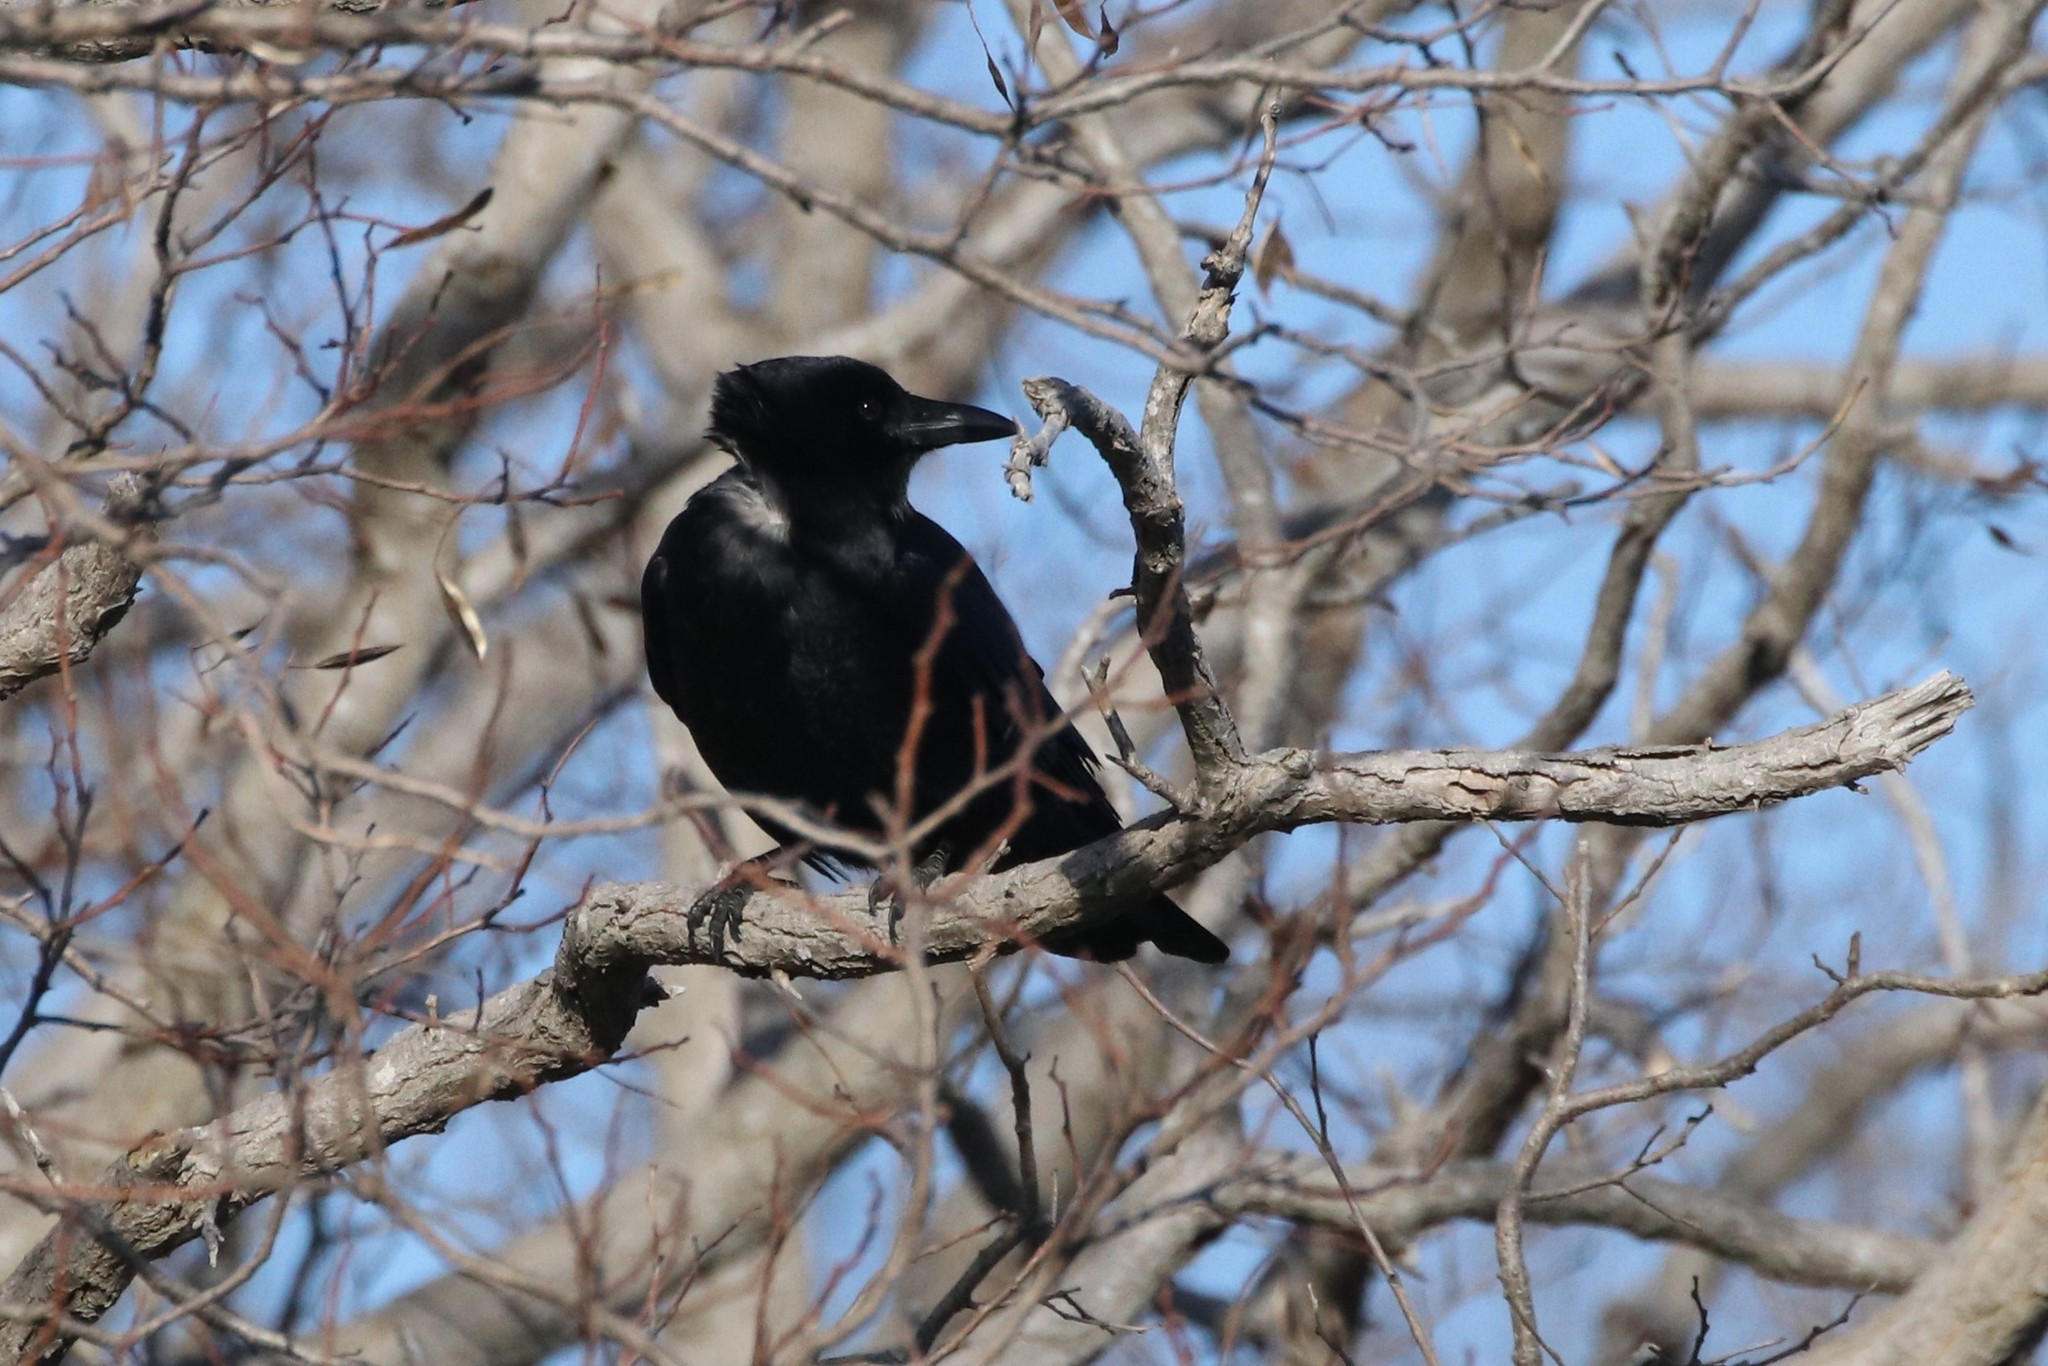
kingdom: Animalia
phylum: Chordata
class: Aves
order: Passeriformes
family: Corvidae
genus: Corvus
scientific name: Corvus brachyrhynchos
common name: American crow
